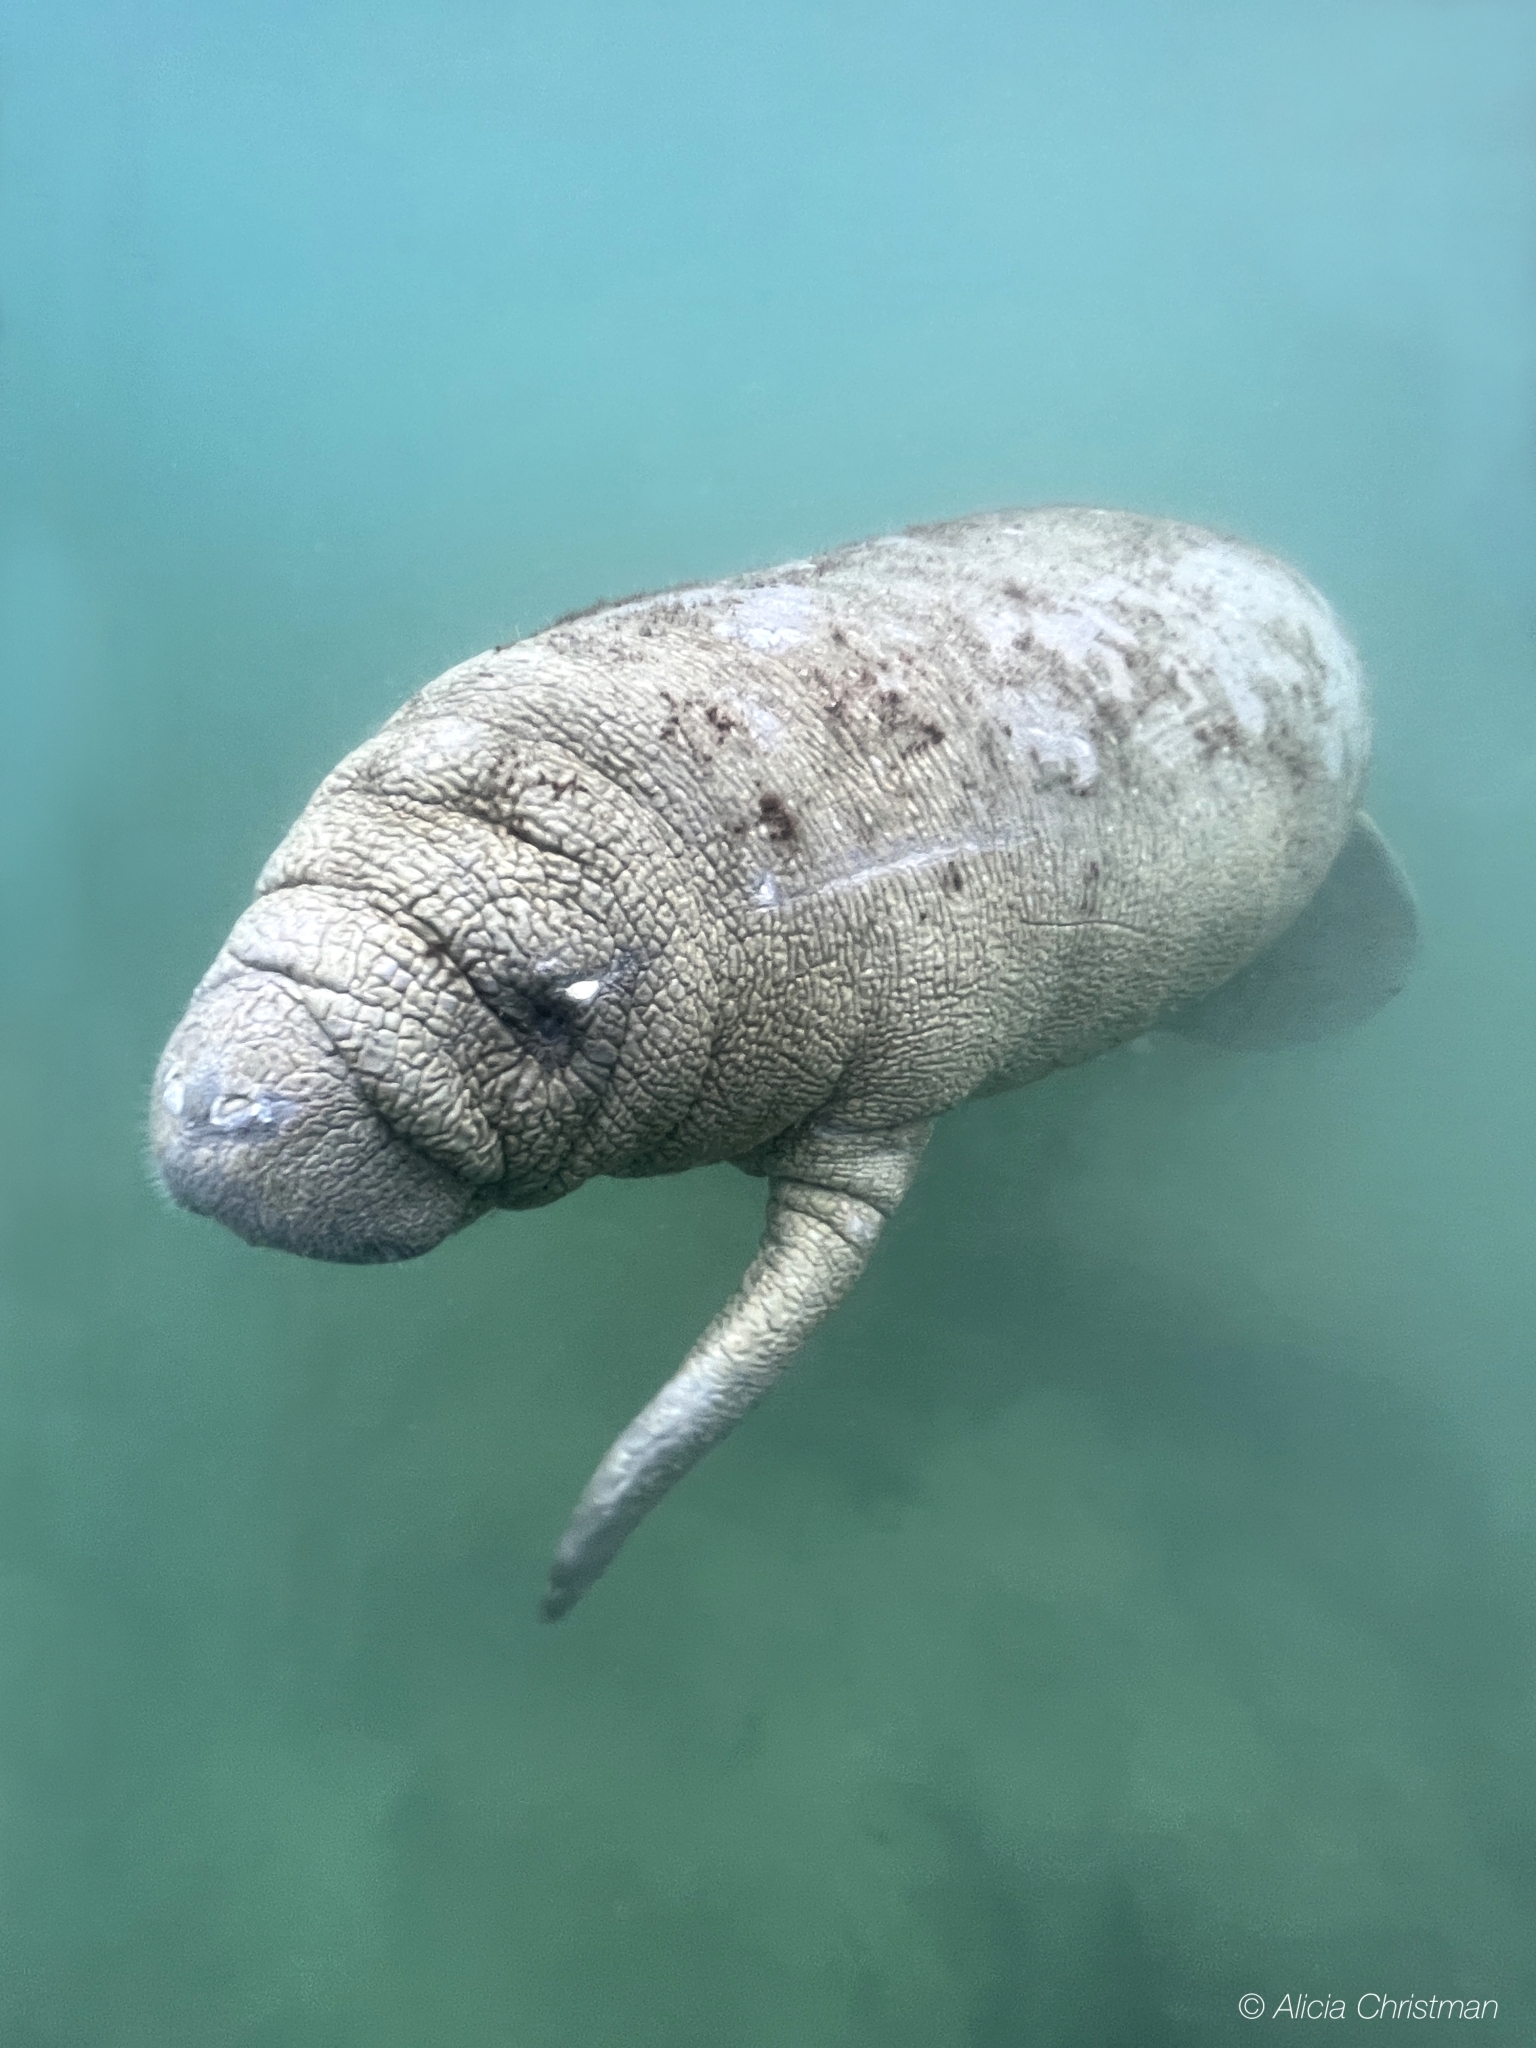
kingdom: Animalia
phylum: Chordata
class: Mammalia
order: Sirenia
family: Trichechidae
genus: Trichechus
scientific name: Trichechus manatus
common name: West indian manatee
